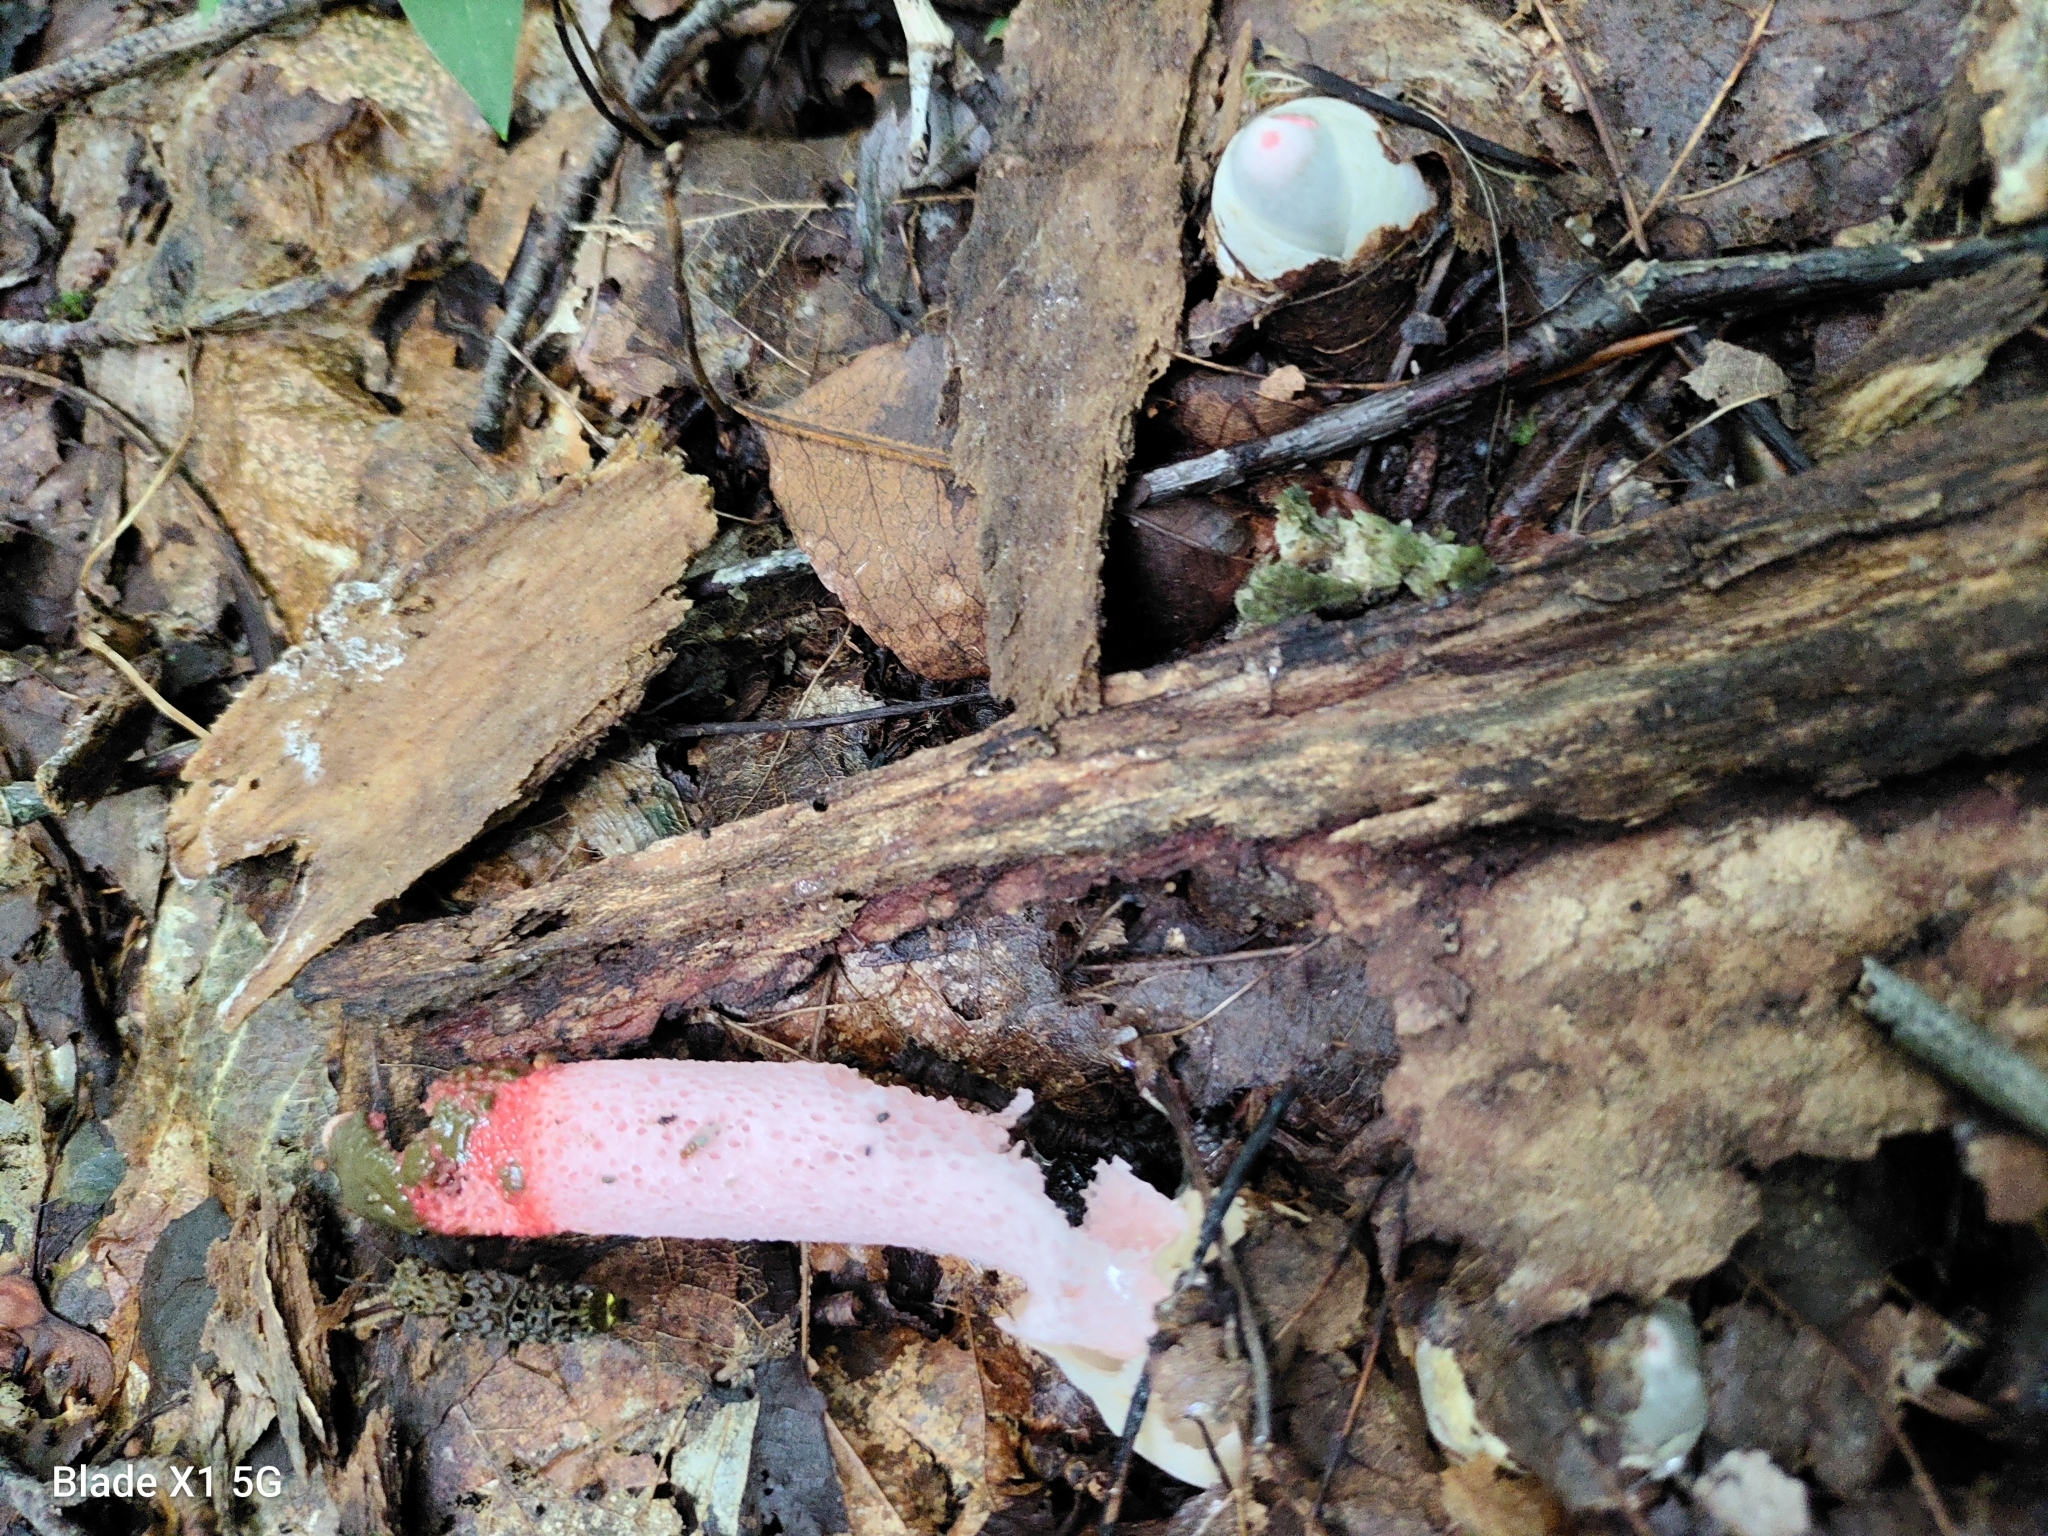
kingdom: Fungi
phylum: Basidiomycota
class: Agaricomycetes
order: Phallales
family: Phallaceae
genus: Mutinus
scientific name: Mutinus ravenelii
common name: Red stinkhorn
